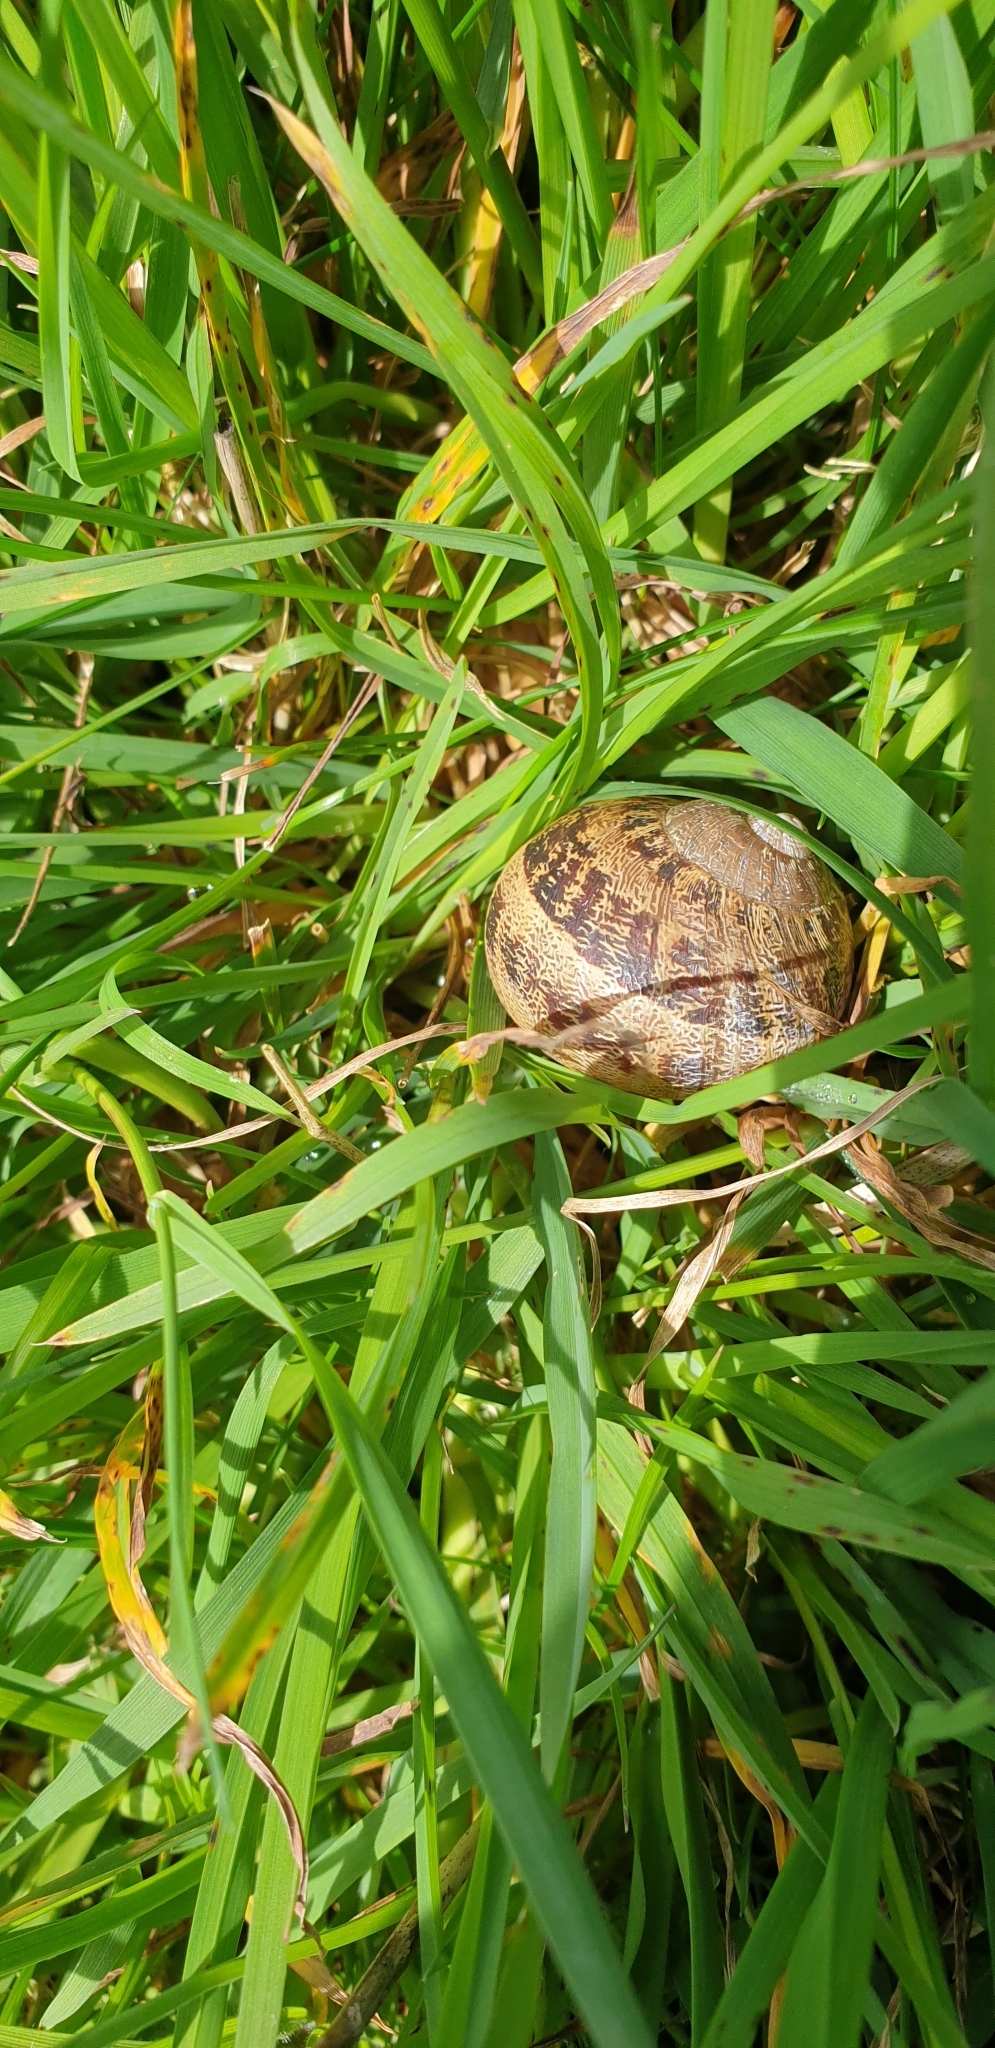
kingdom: Animalia
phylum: Mollusca
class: Gastropoda
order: Stylommatophora
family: Helicidae
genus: Cornu
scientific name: Cornu aspersum
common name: Brown garden snail
